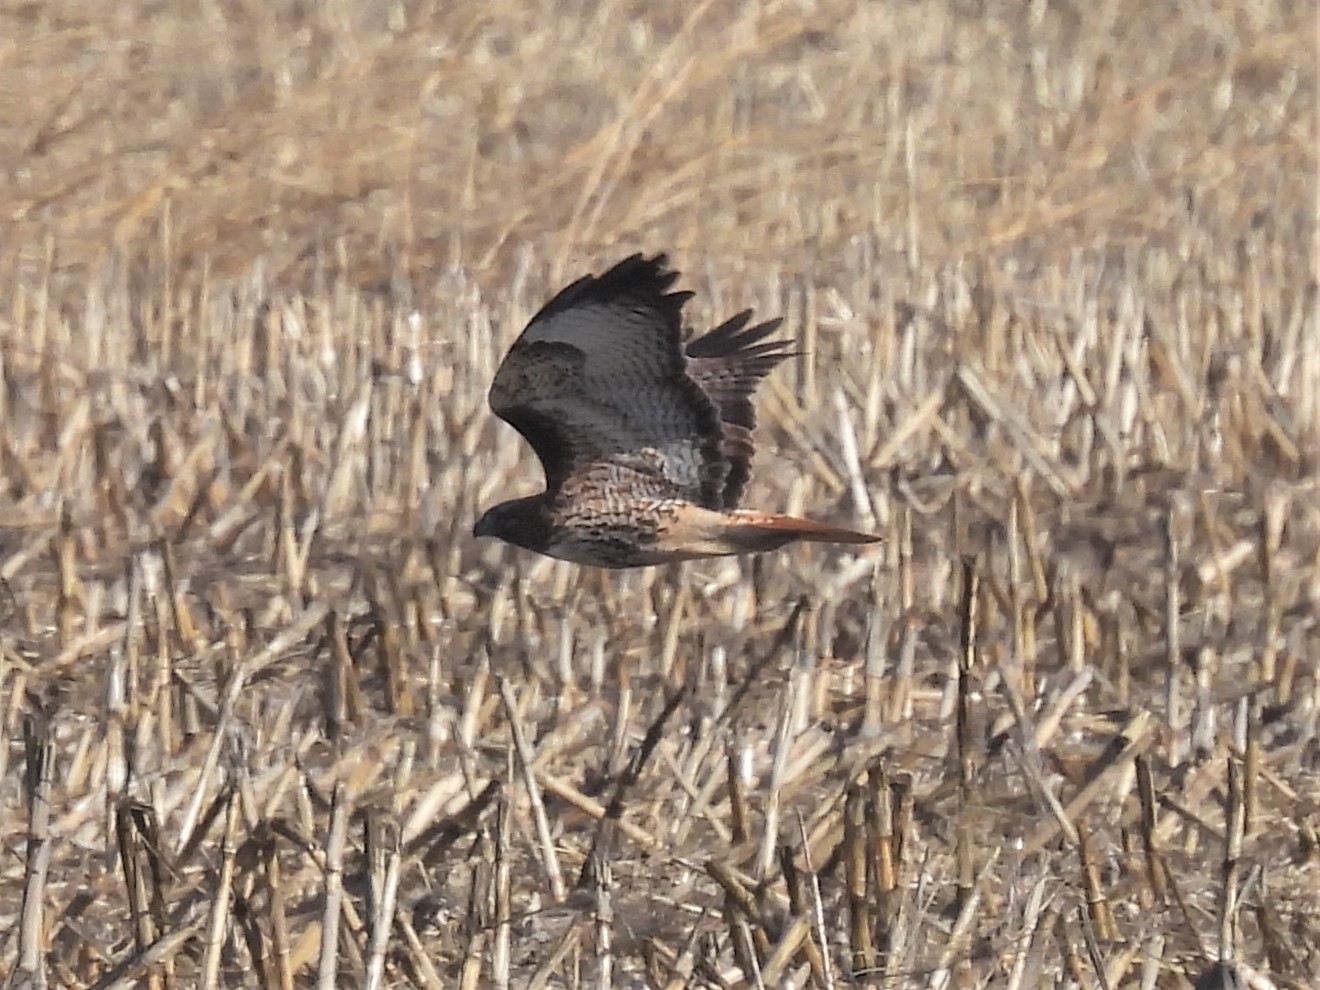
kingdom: Animalia
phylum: Chordata
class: Aves
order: Accipitriformes
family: Accipitridae
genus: Buteo
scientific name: Buteo jamaicensis
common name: Red-tailed hawk
